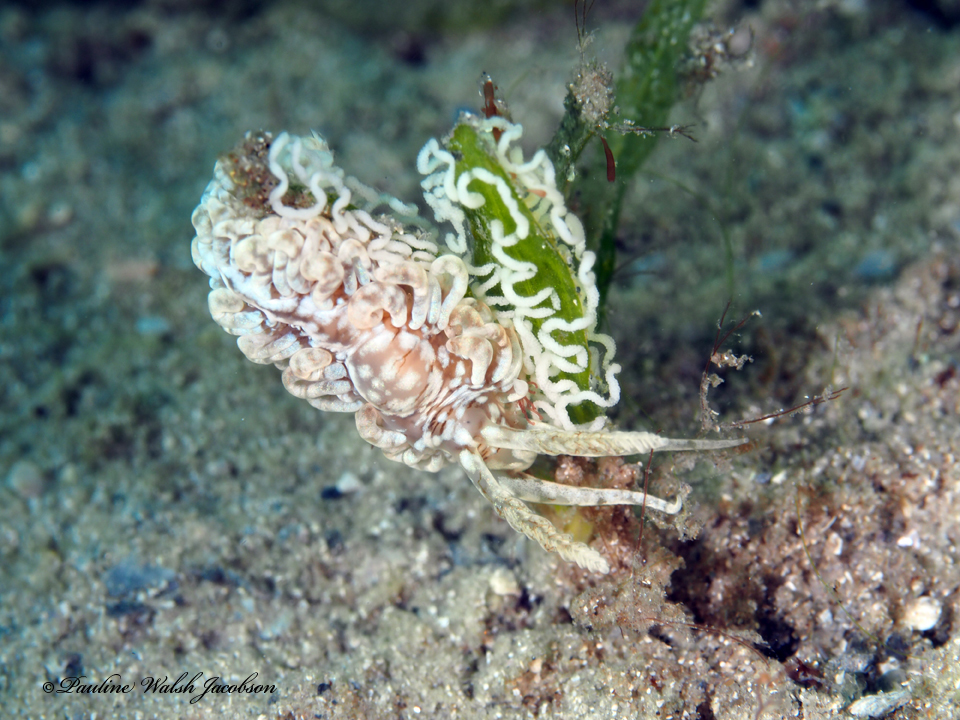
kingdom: Animalia
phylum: Mollusca
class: Gastropoda
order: Nudibranchia
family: Aeolidiidae
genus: Spurilla
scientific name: Spurilla dupontae
